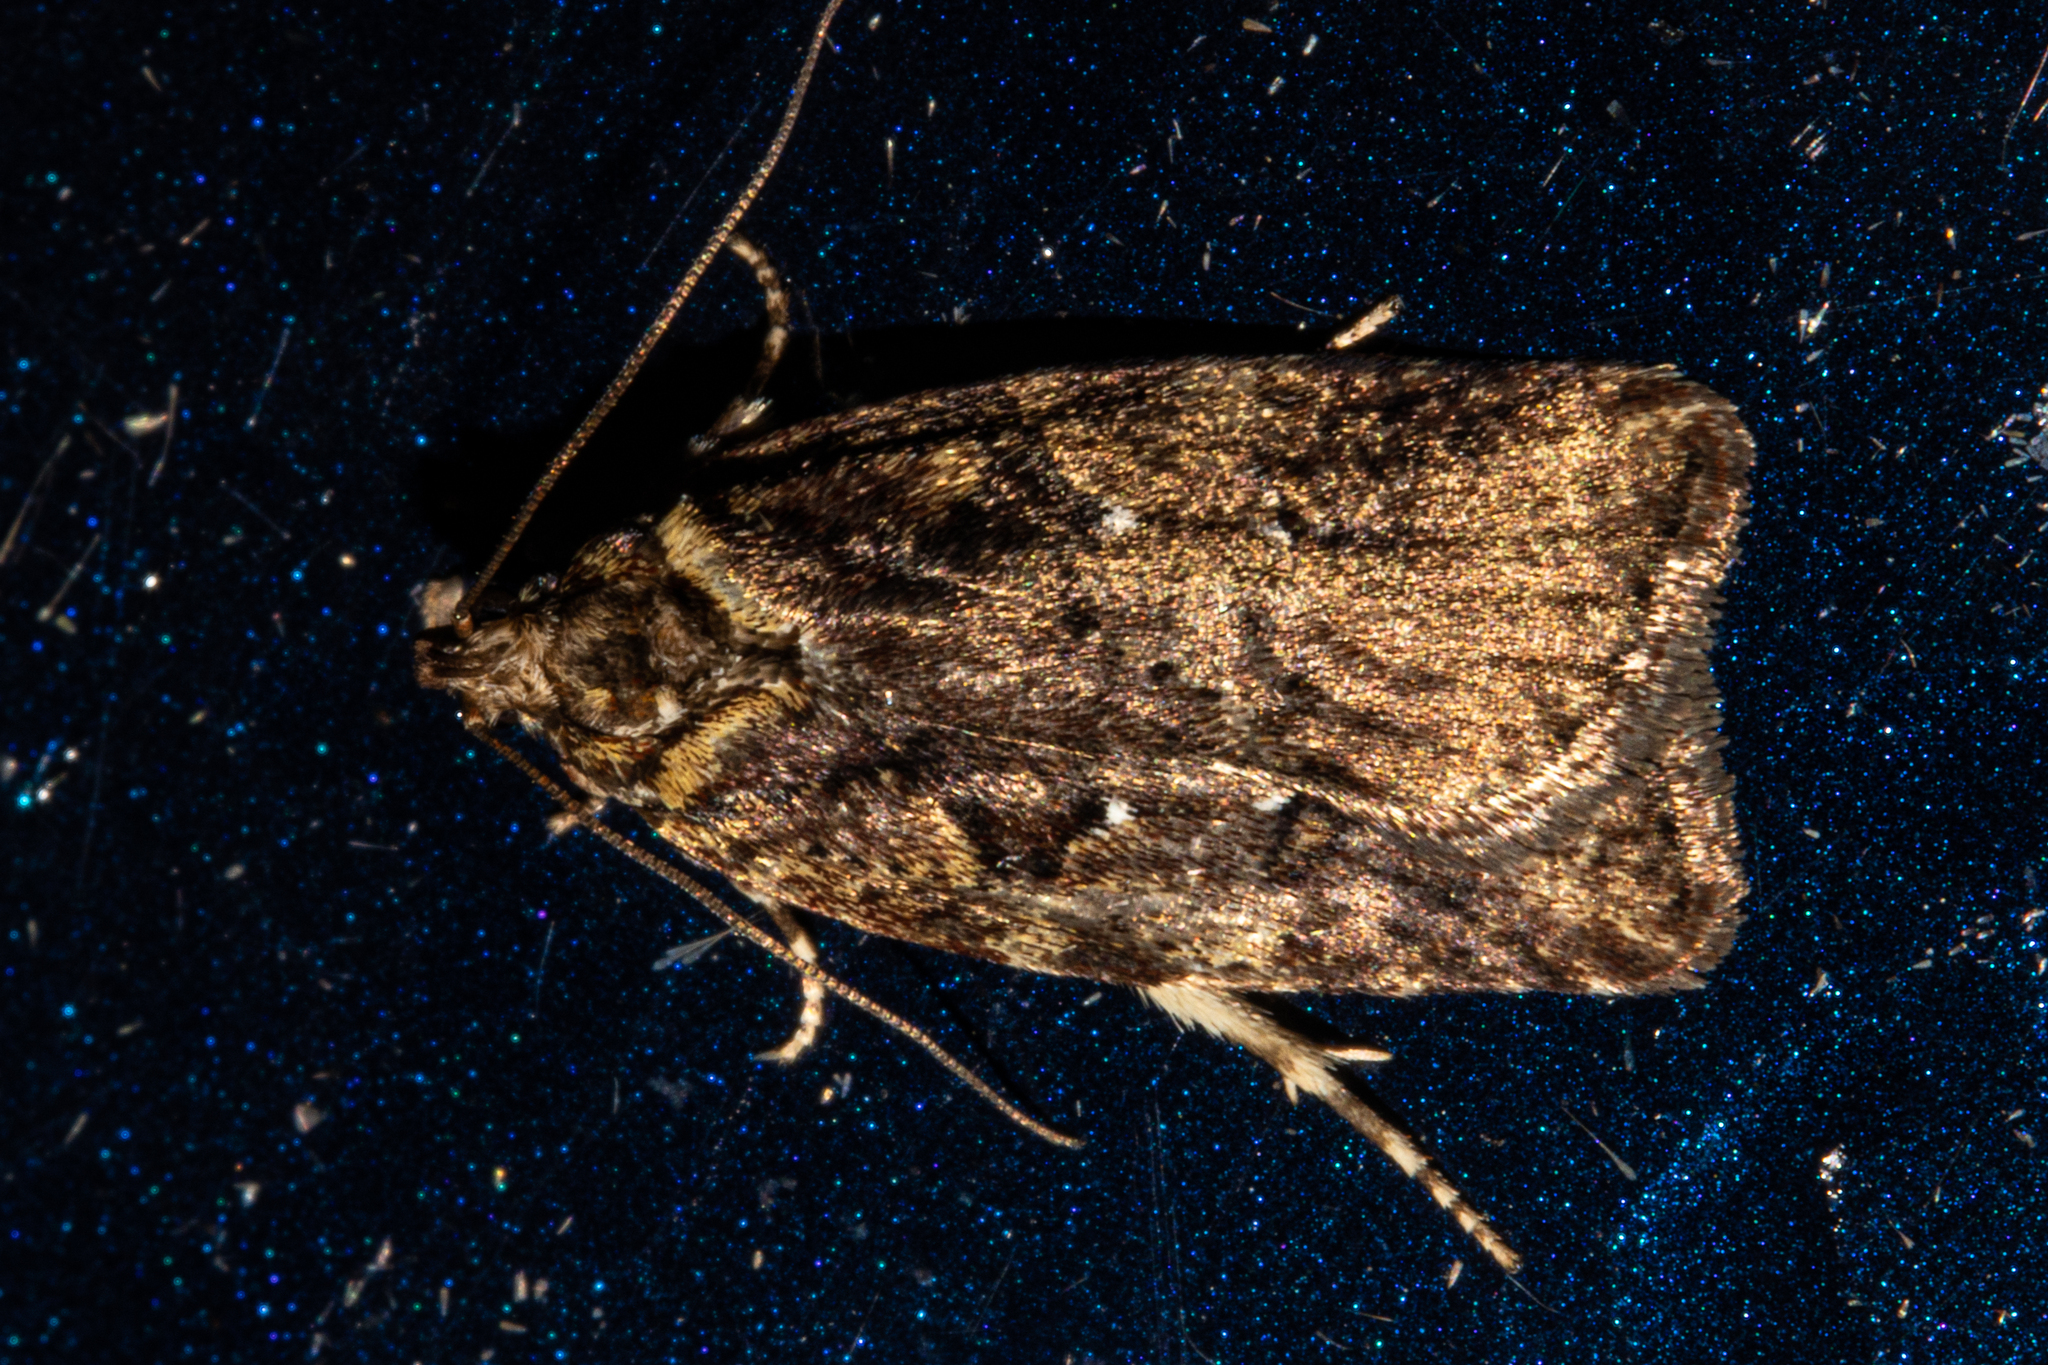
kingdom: Animalia
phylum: Arthropoda
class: Insecta
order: Lepidoptera
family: Oecophoridae
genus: Proteodes
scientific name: Proteodes profunda
